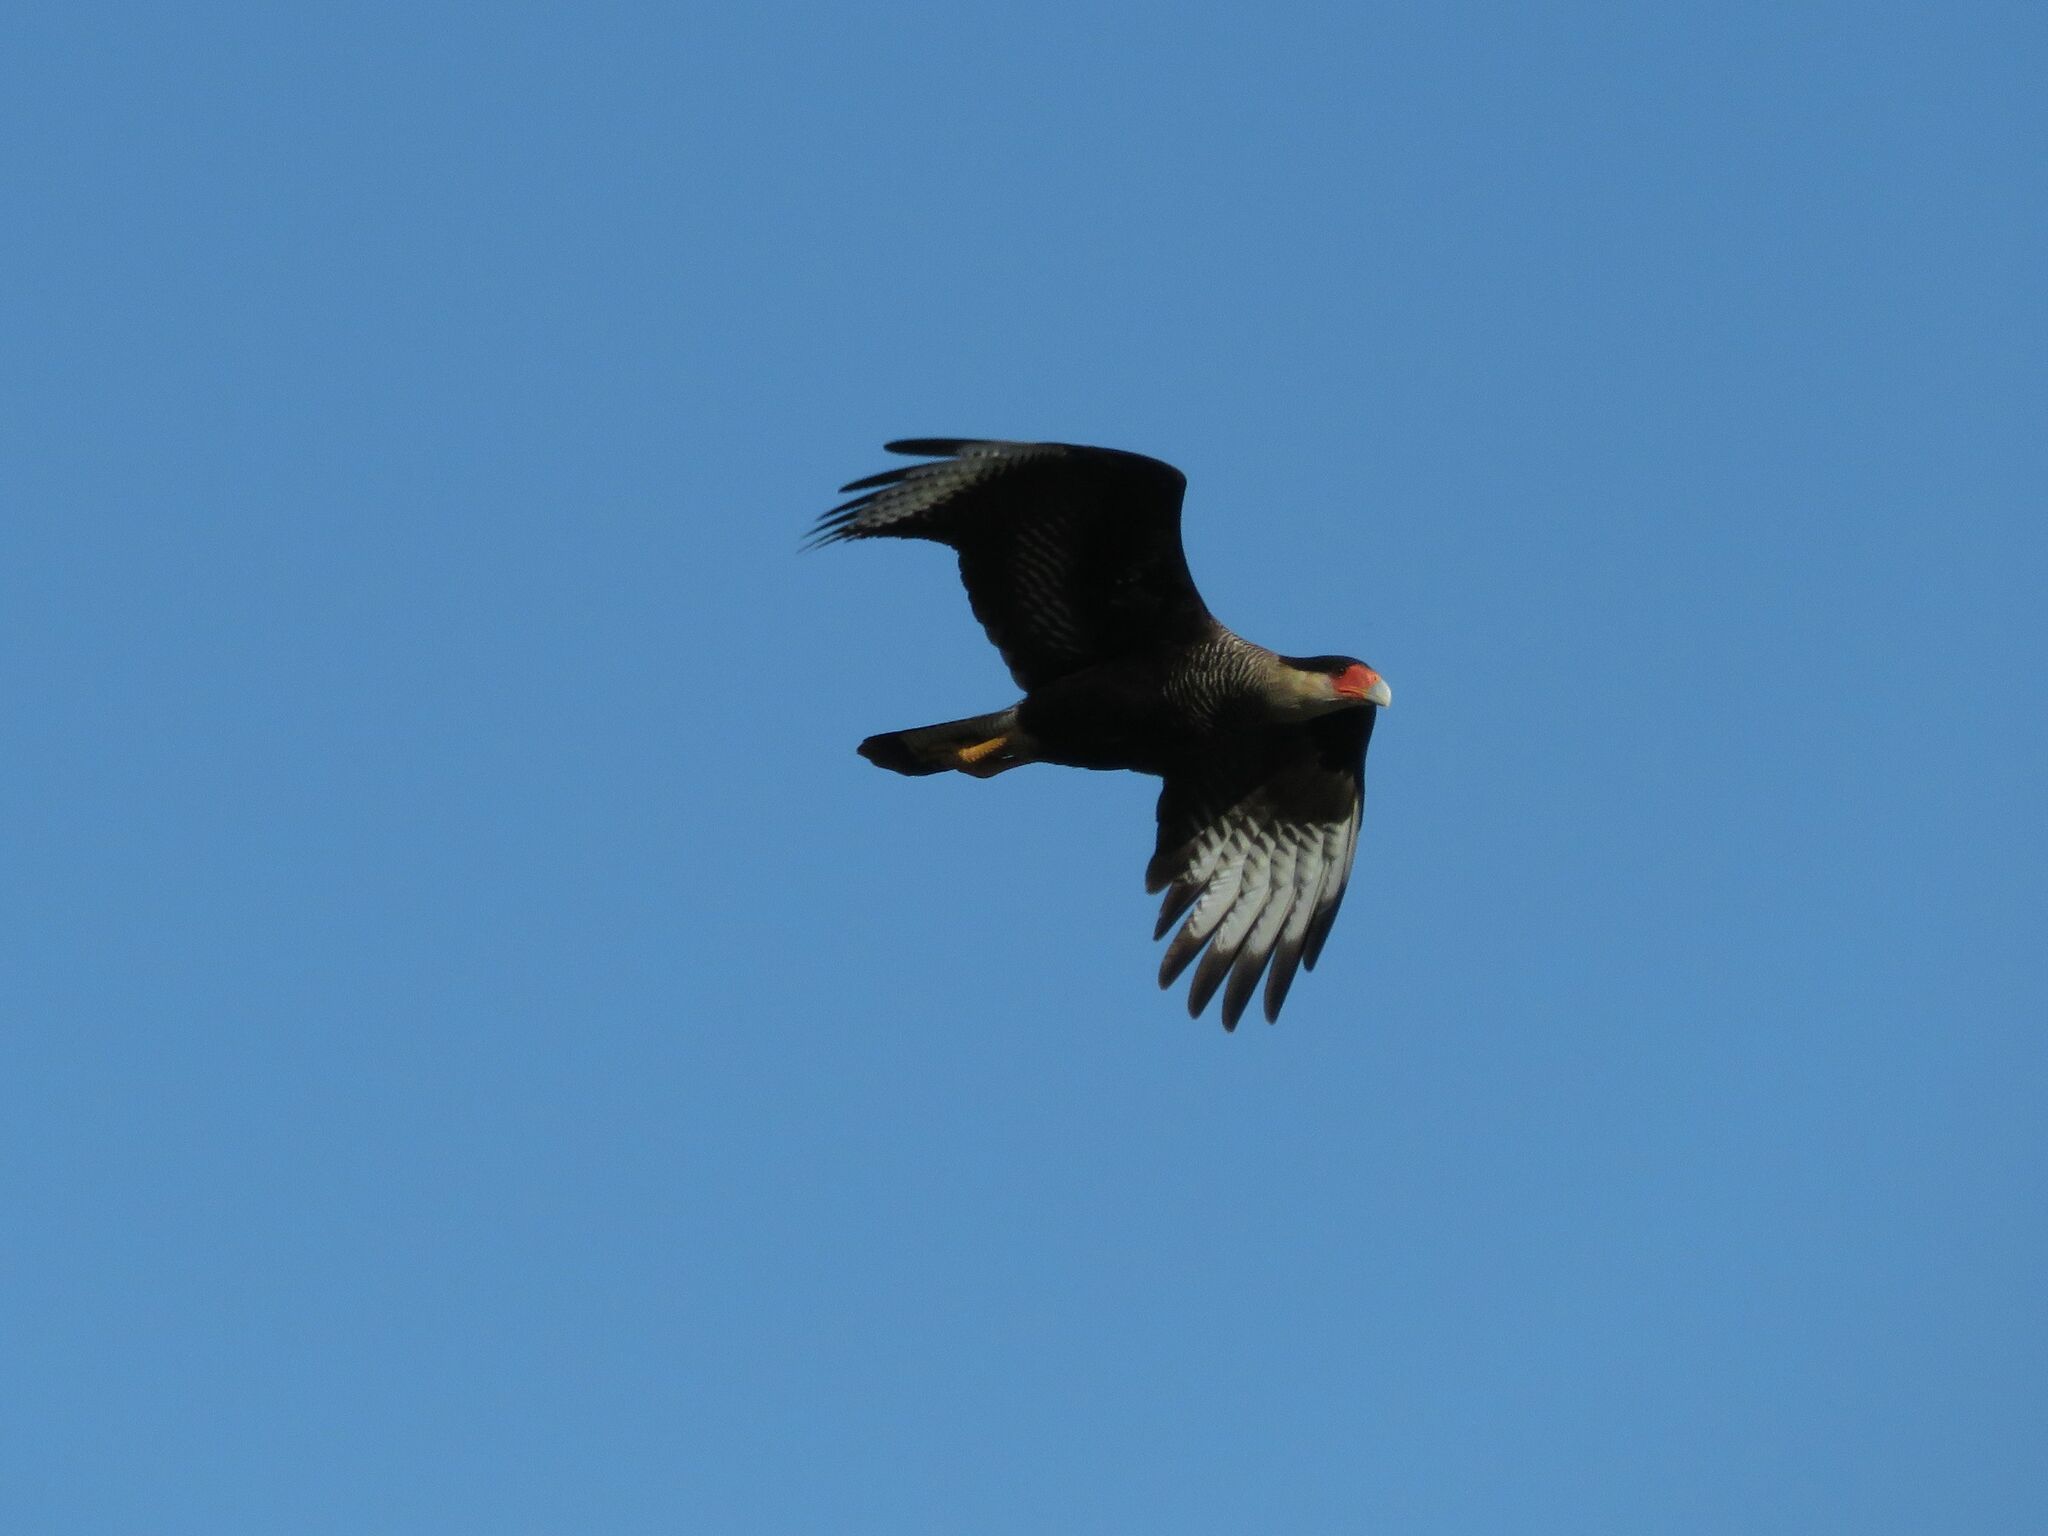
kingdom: Animalia
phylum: Chordata
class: Aves
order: Falconiformes
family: Falconidae
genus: Caracara
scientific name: Caracara plancus
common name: Southern caracara
